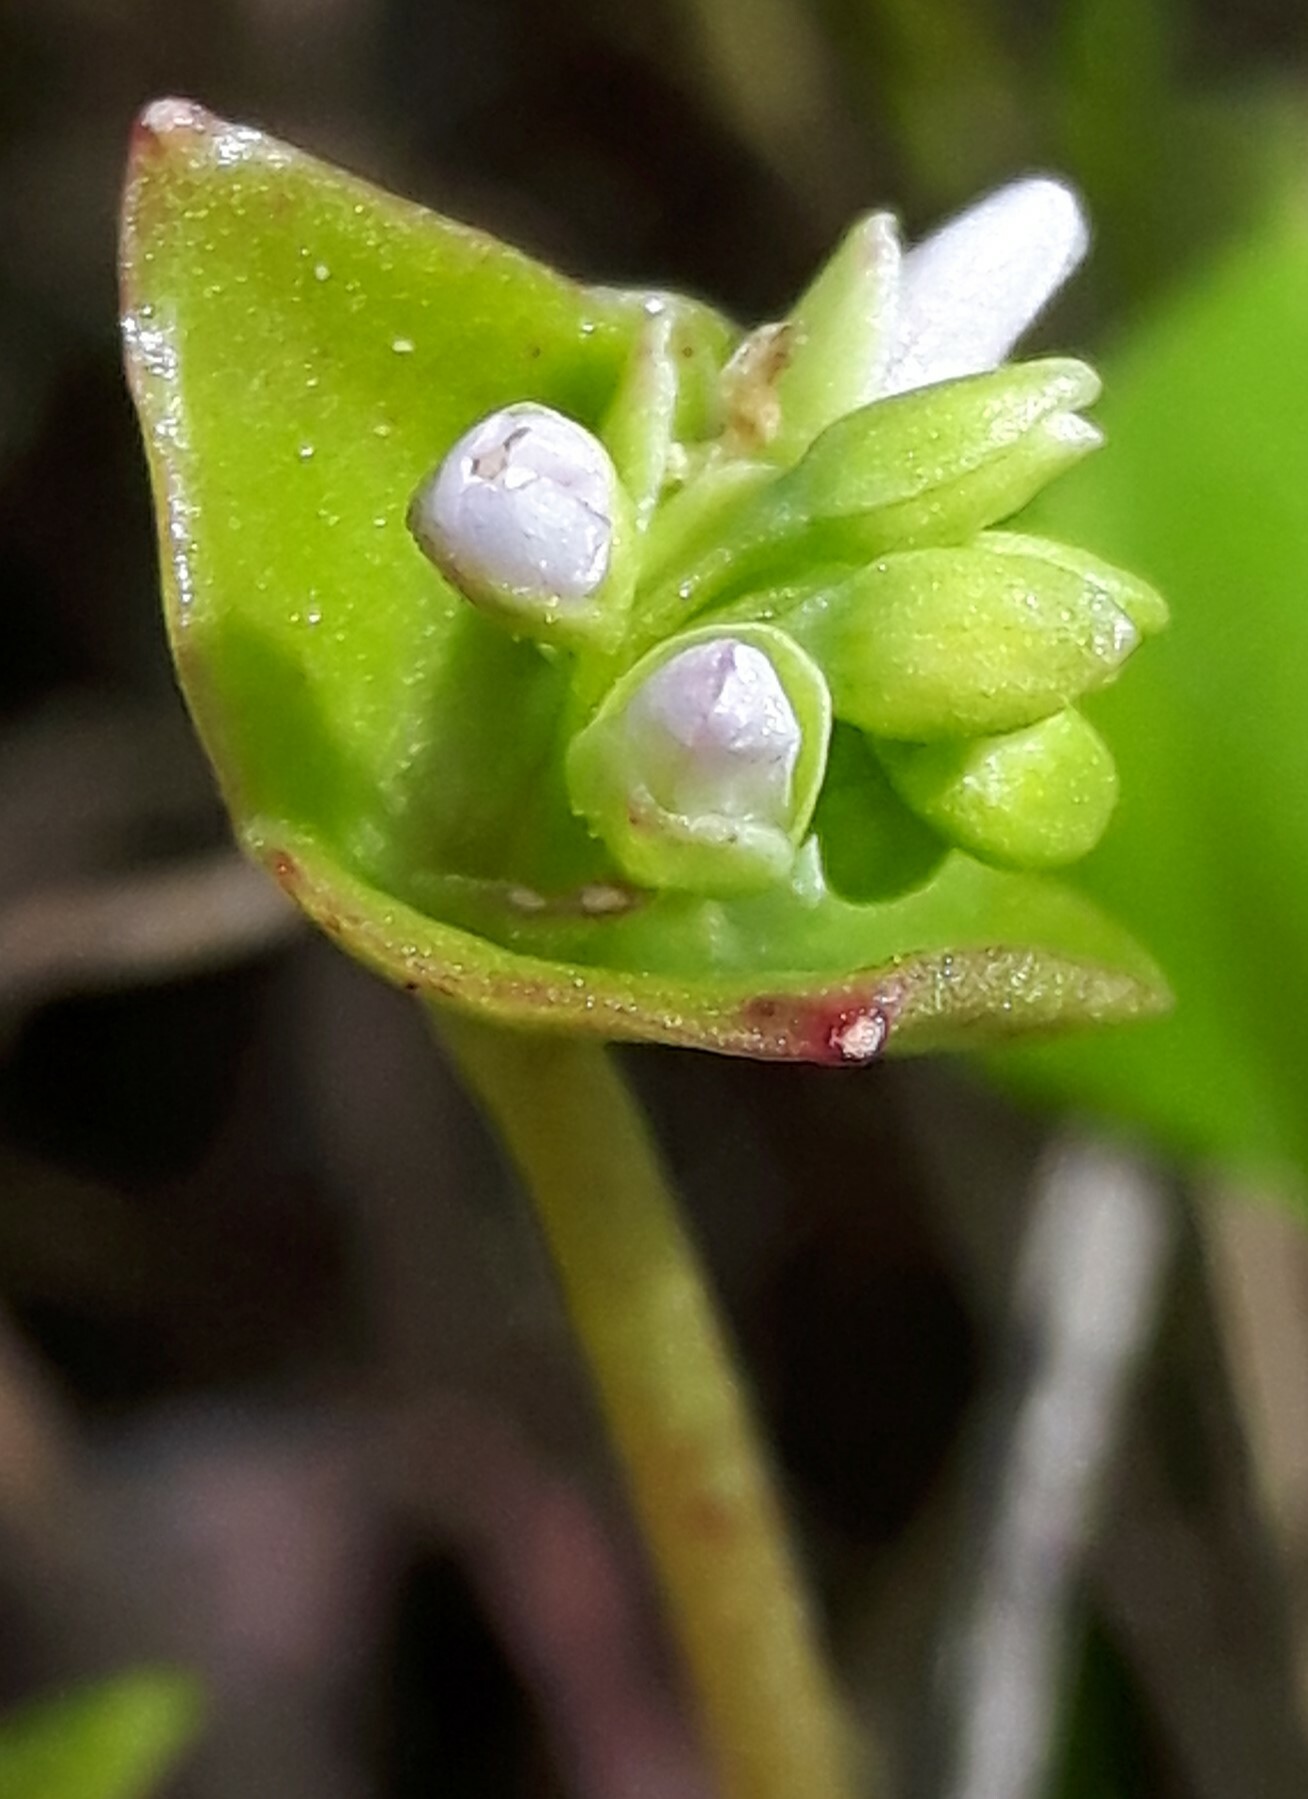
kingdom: Plantae
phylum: Tracheophyta
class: Magnoliopsida
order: Caryophyllales
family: Montiaceae
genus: Claytonia
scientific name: Claytonia rubra
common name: Erubescent miner's-lettuce
